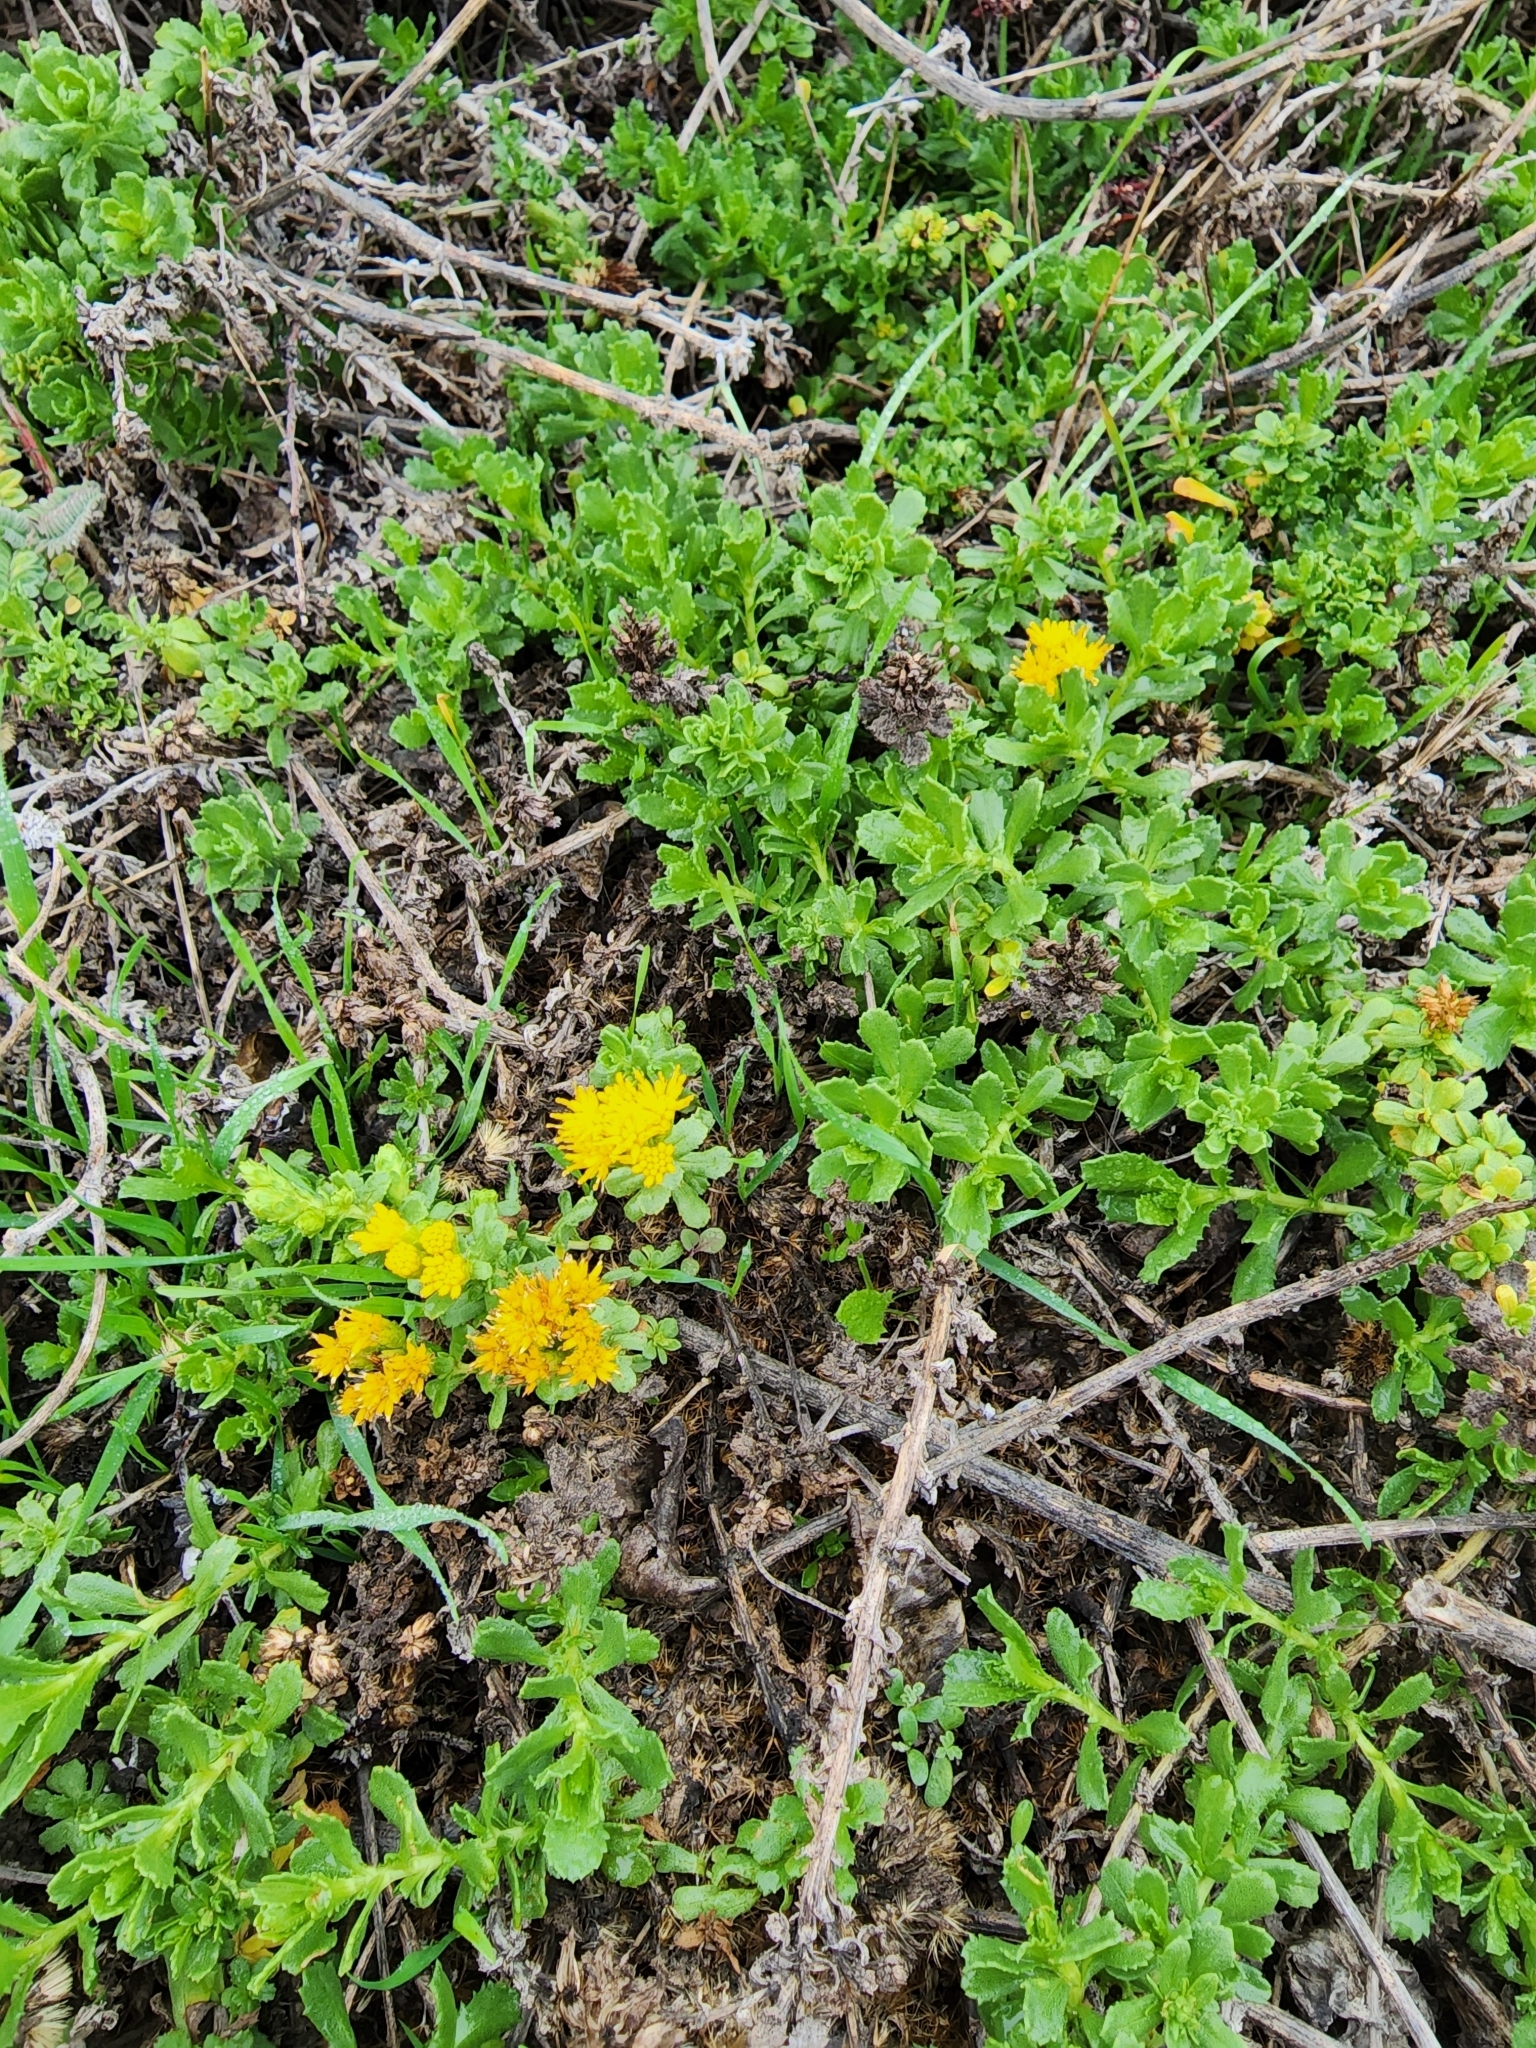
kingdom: Plantae
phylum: Tracheophyta
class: Magnoliopsida
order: Asterales
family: Asteraceae
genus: Isocoma
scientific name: Isocoma menziesii
